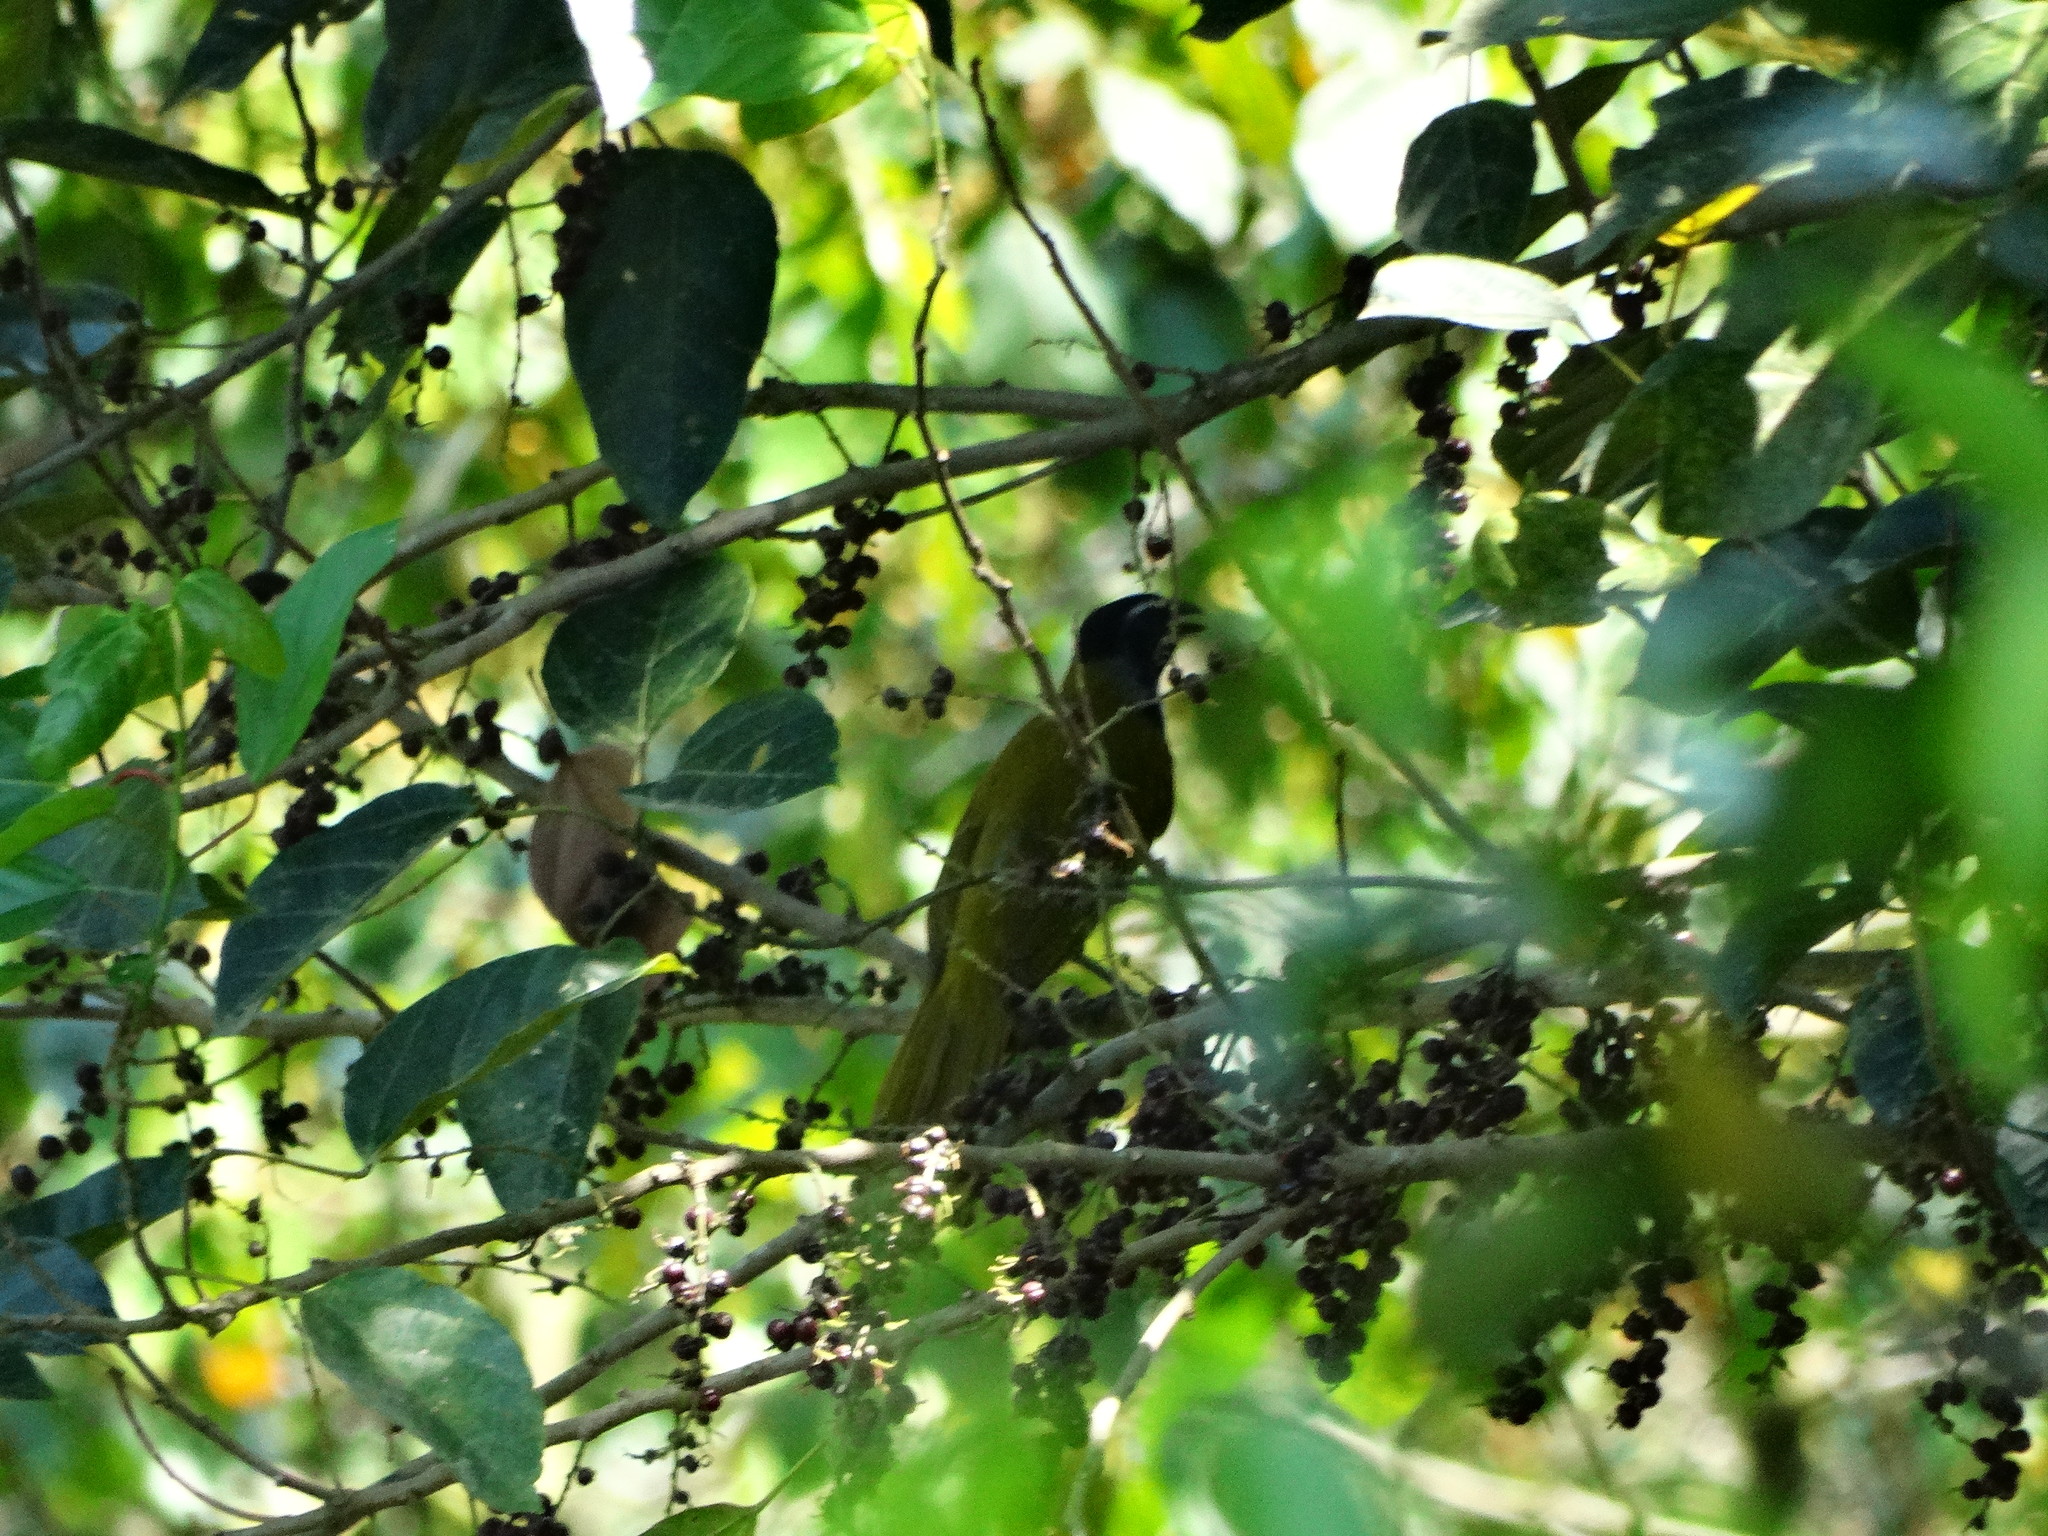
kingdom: Animalia
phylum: Chordata
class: Aves
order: Passeriformes
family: Thraupidae
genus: Saltator
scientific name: Saltator atriceps
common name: Black-headed saltator
